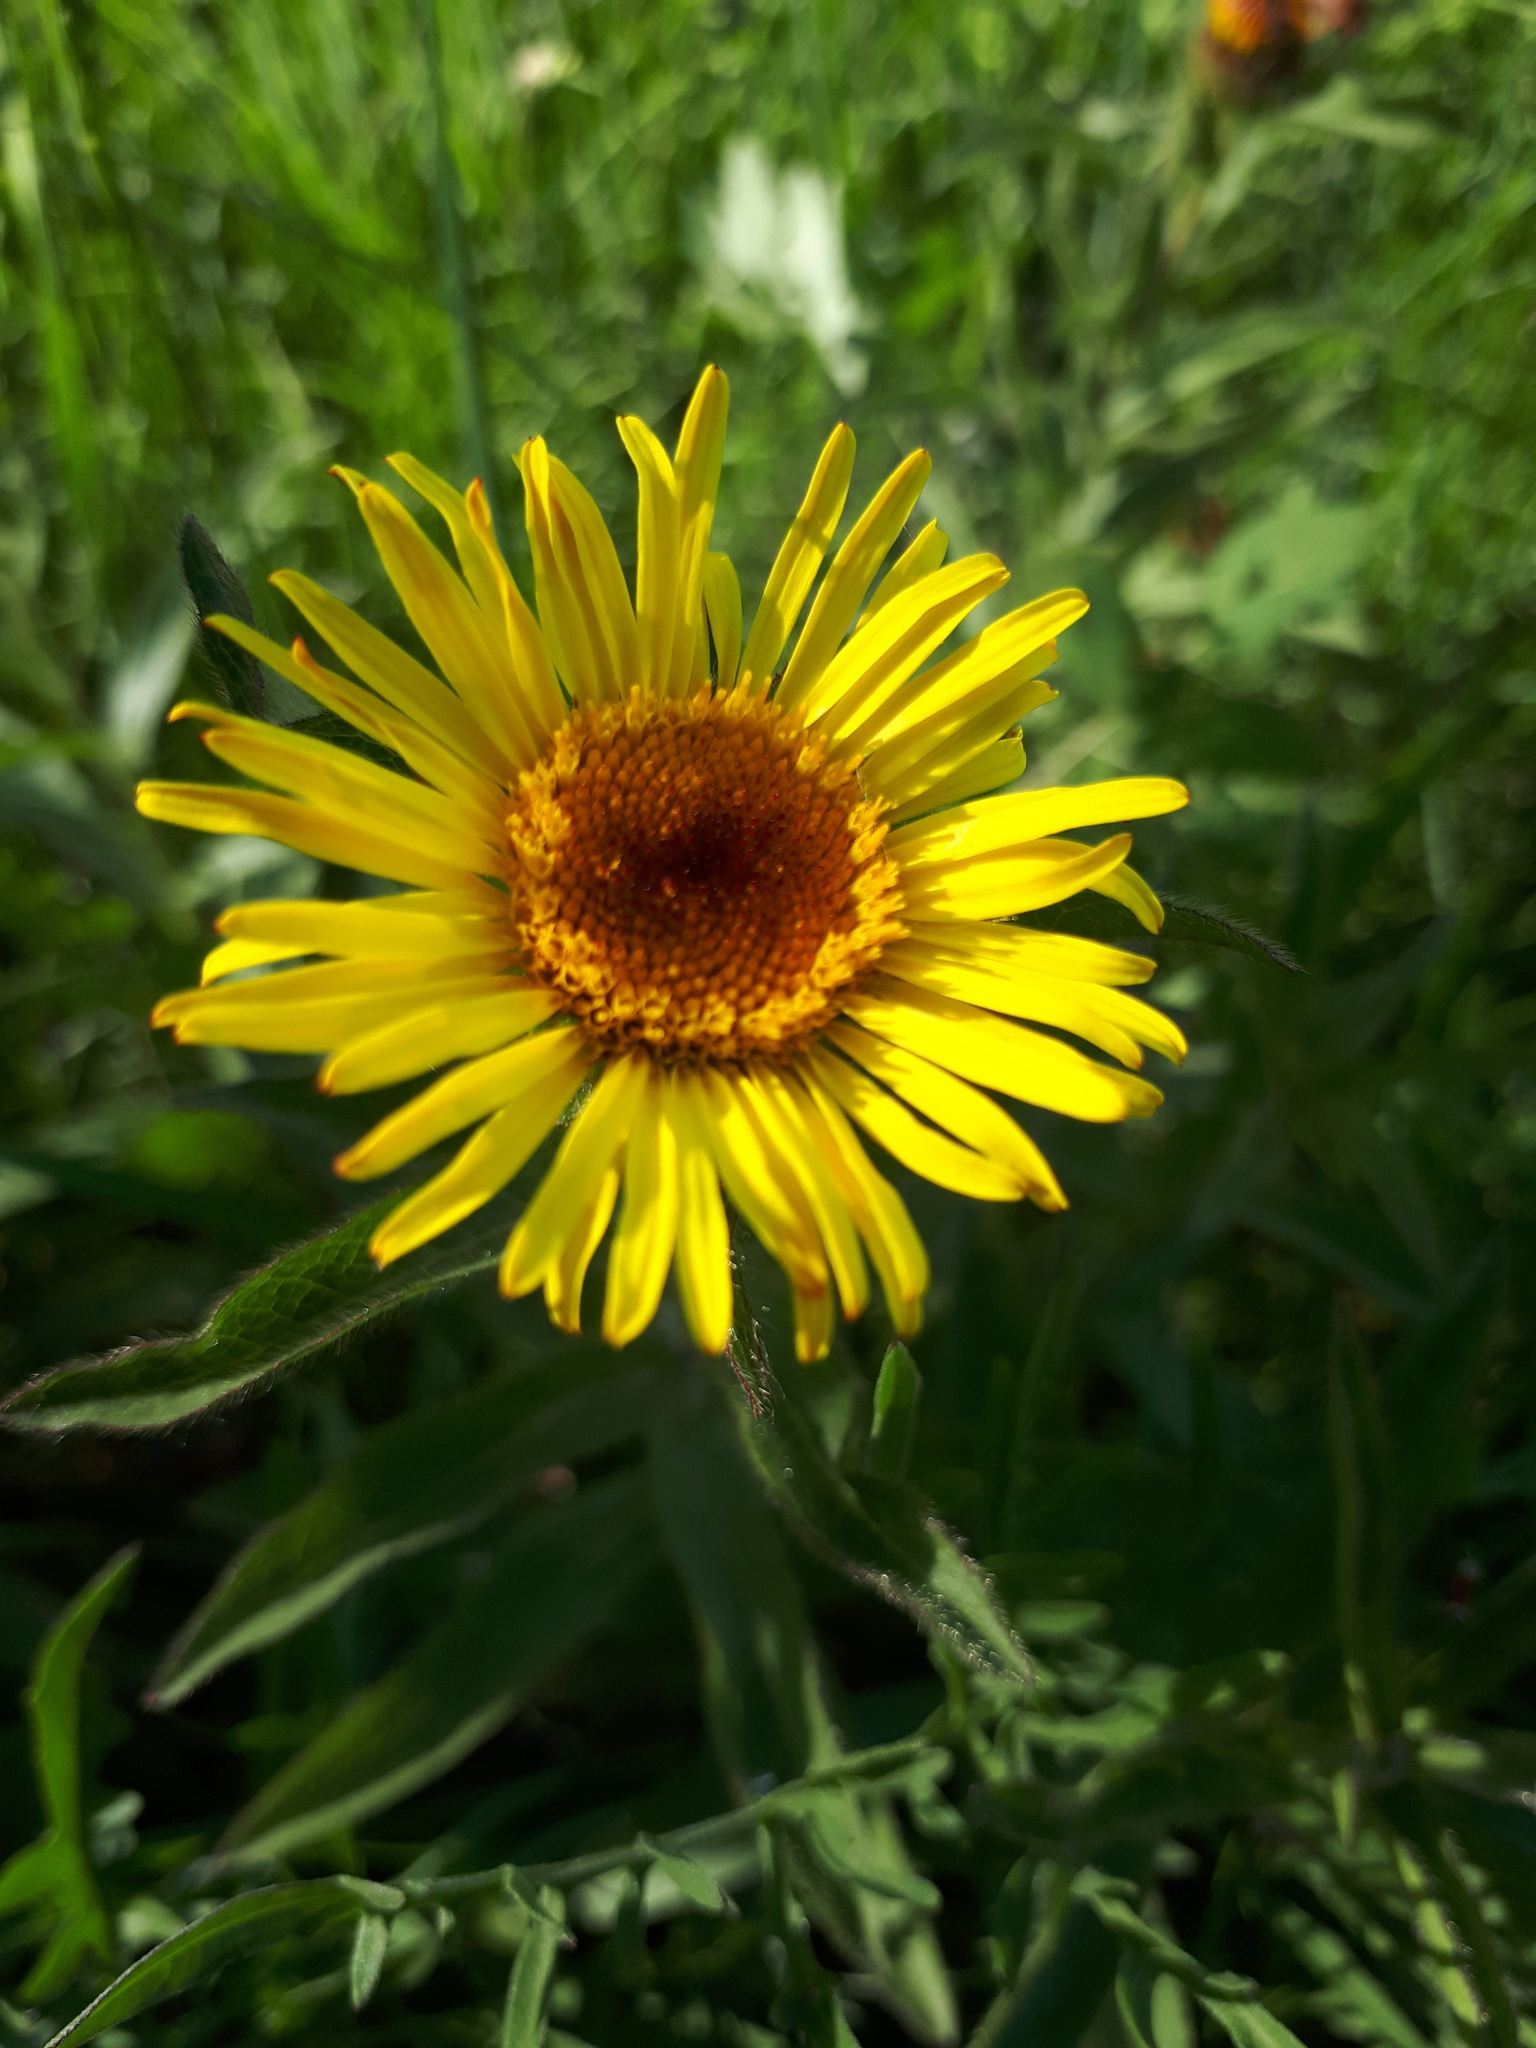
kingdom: Plantae
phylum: Tracheophyta
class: Magnoliopsida
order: Asterales
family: Asteraceae
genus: Pentanema
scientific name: Pentanema hirtum
